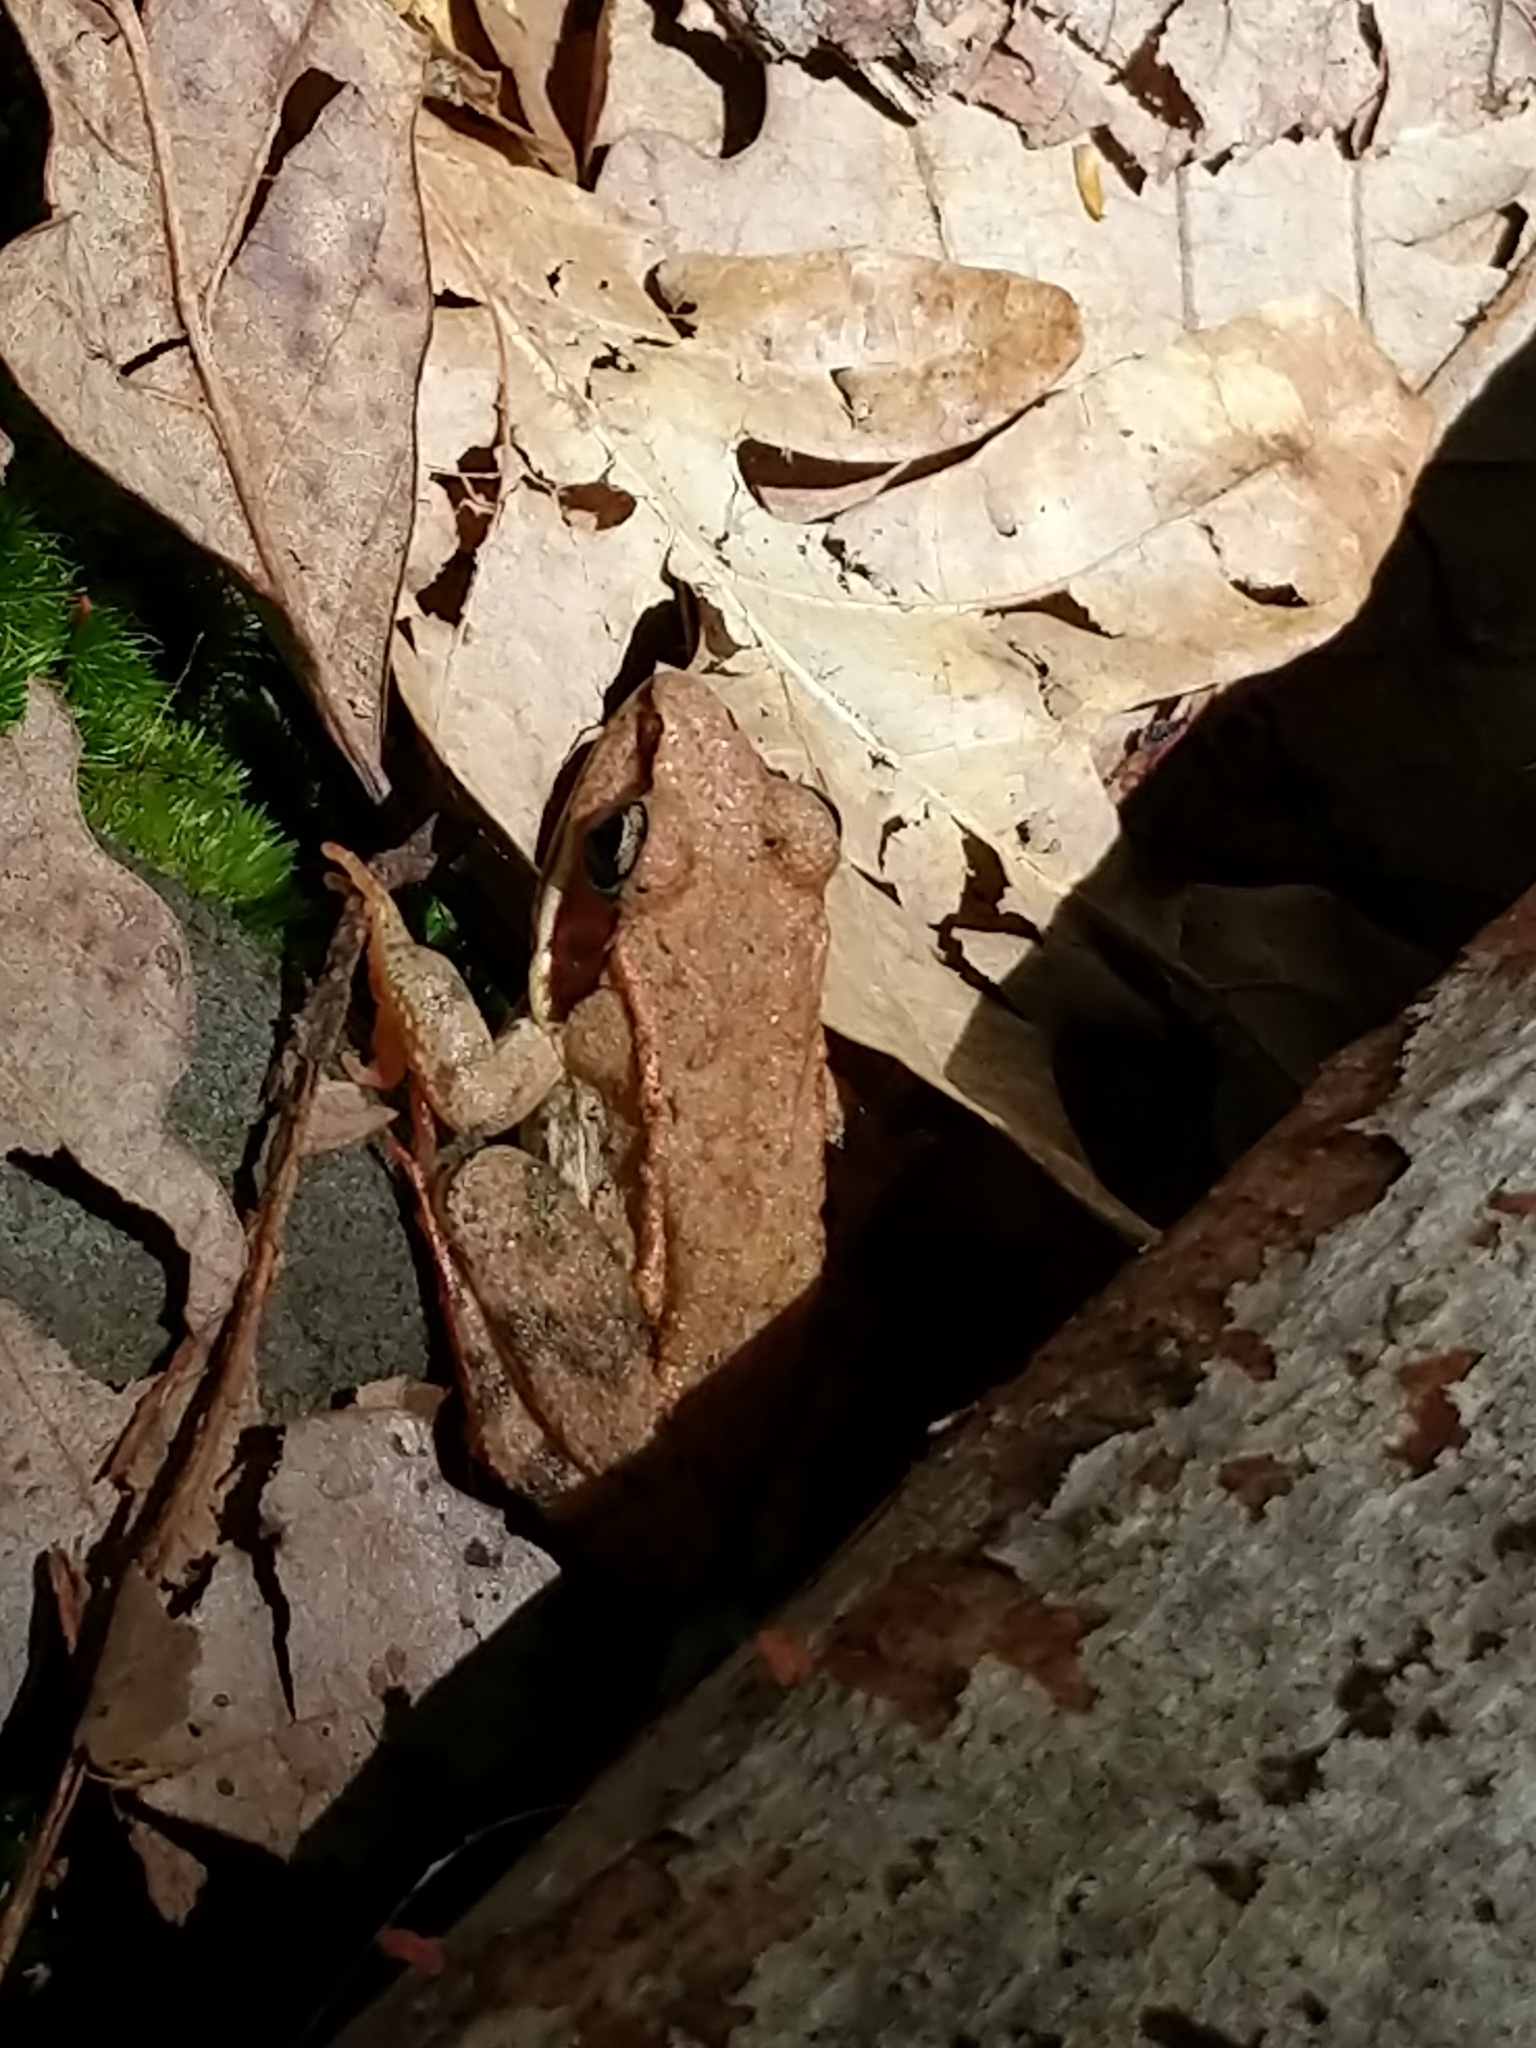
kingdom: Animalia
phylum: Chordata
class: Amphibia
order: Anura
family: Ranidae
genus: Lithobates
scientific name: Lithobates sylvaticus
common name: Wood frog
